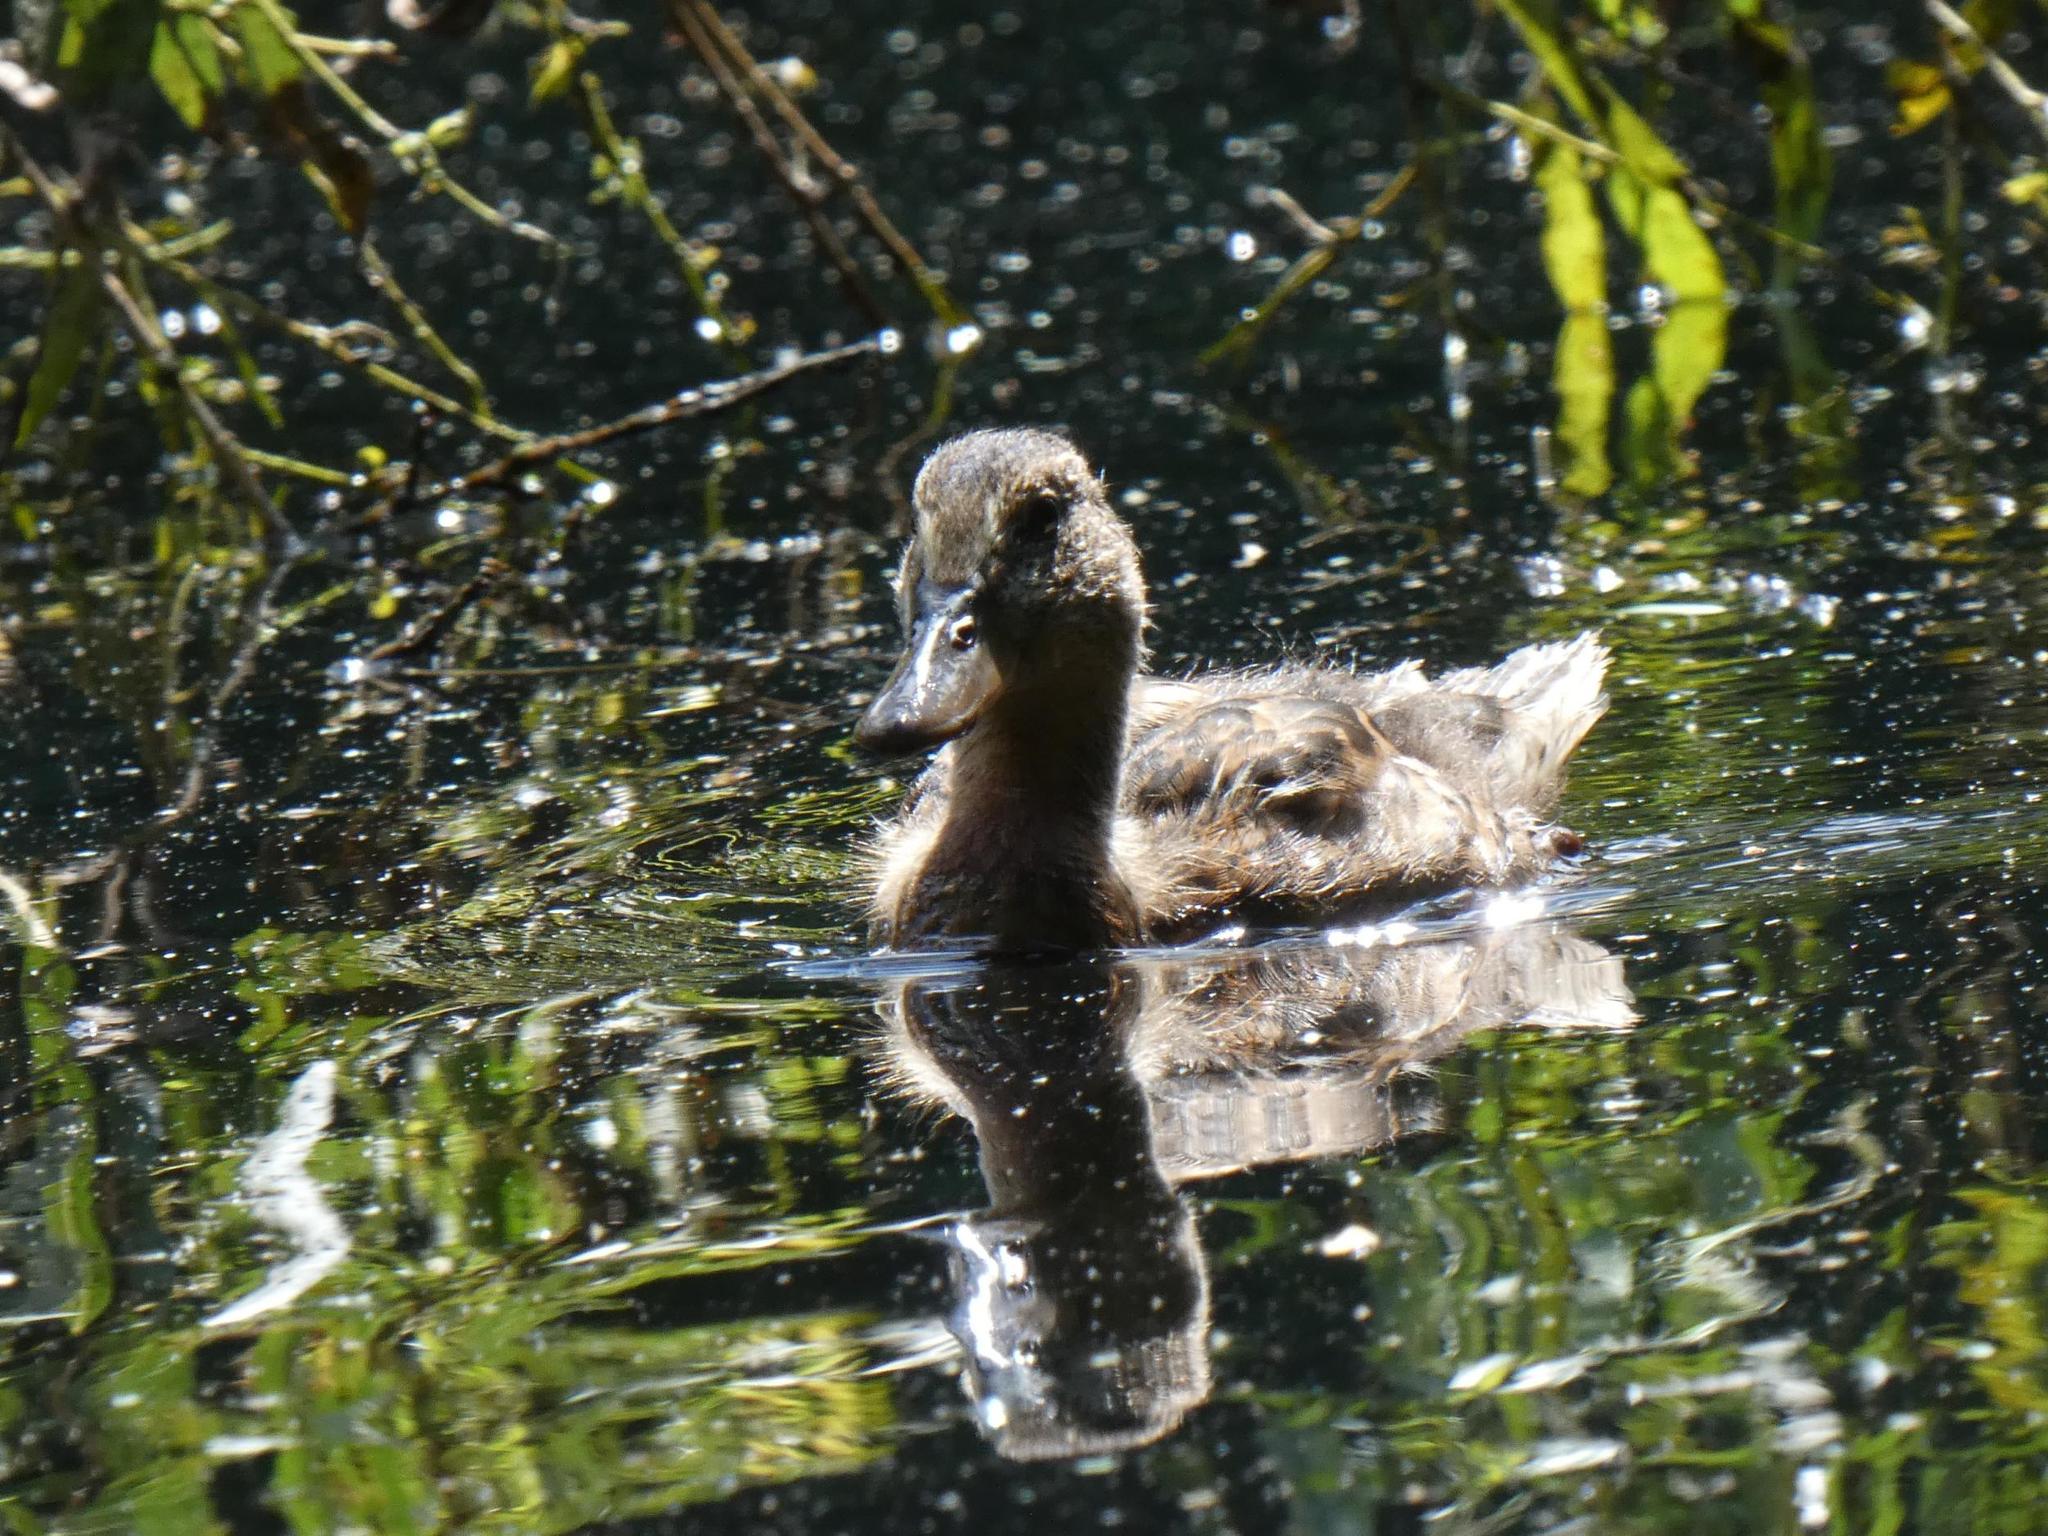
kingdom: Animalia
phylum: Chordata
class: Aves
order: Anseriformes
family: Anatidae
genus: Anas
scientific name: Anas platyrhynchos
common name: Mallard
